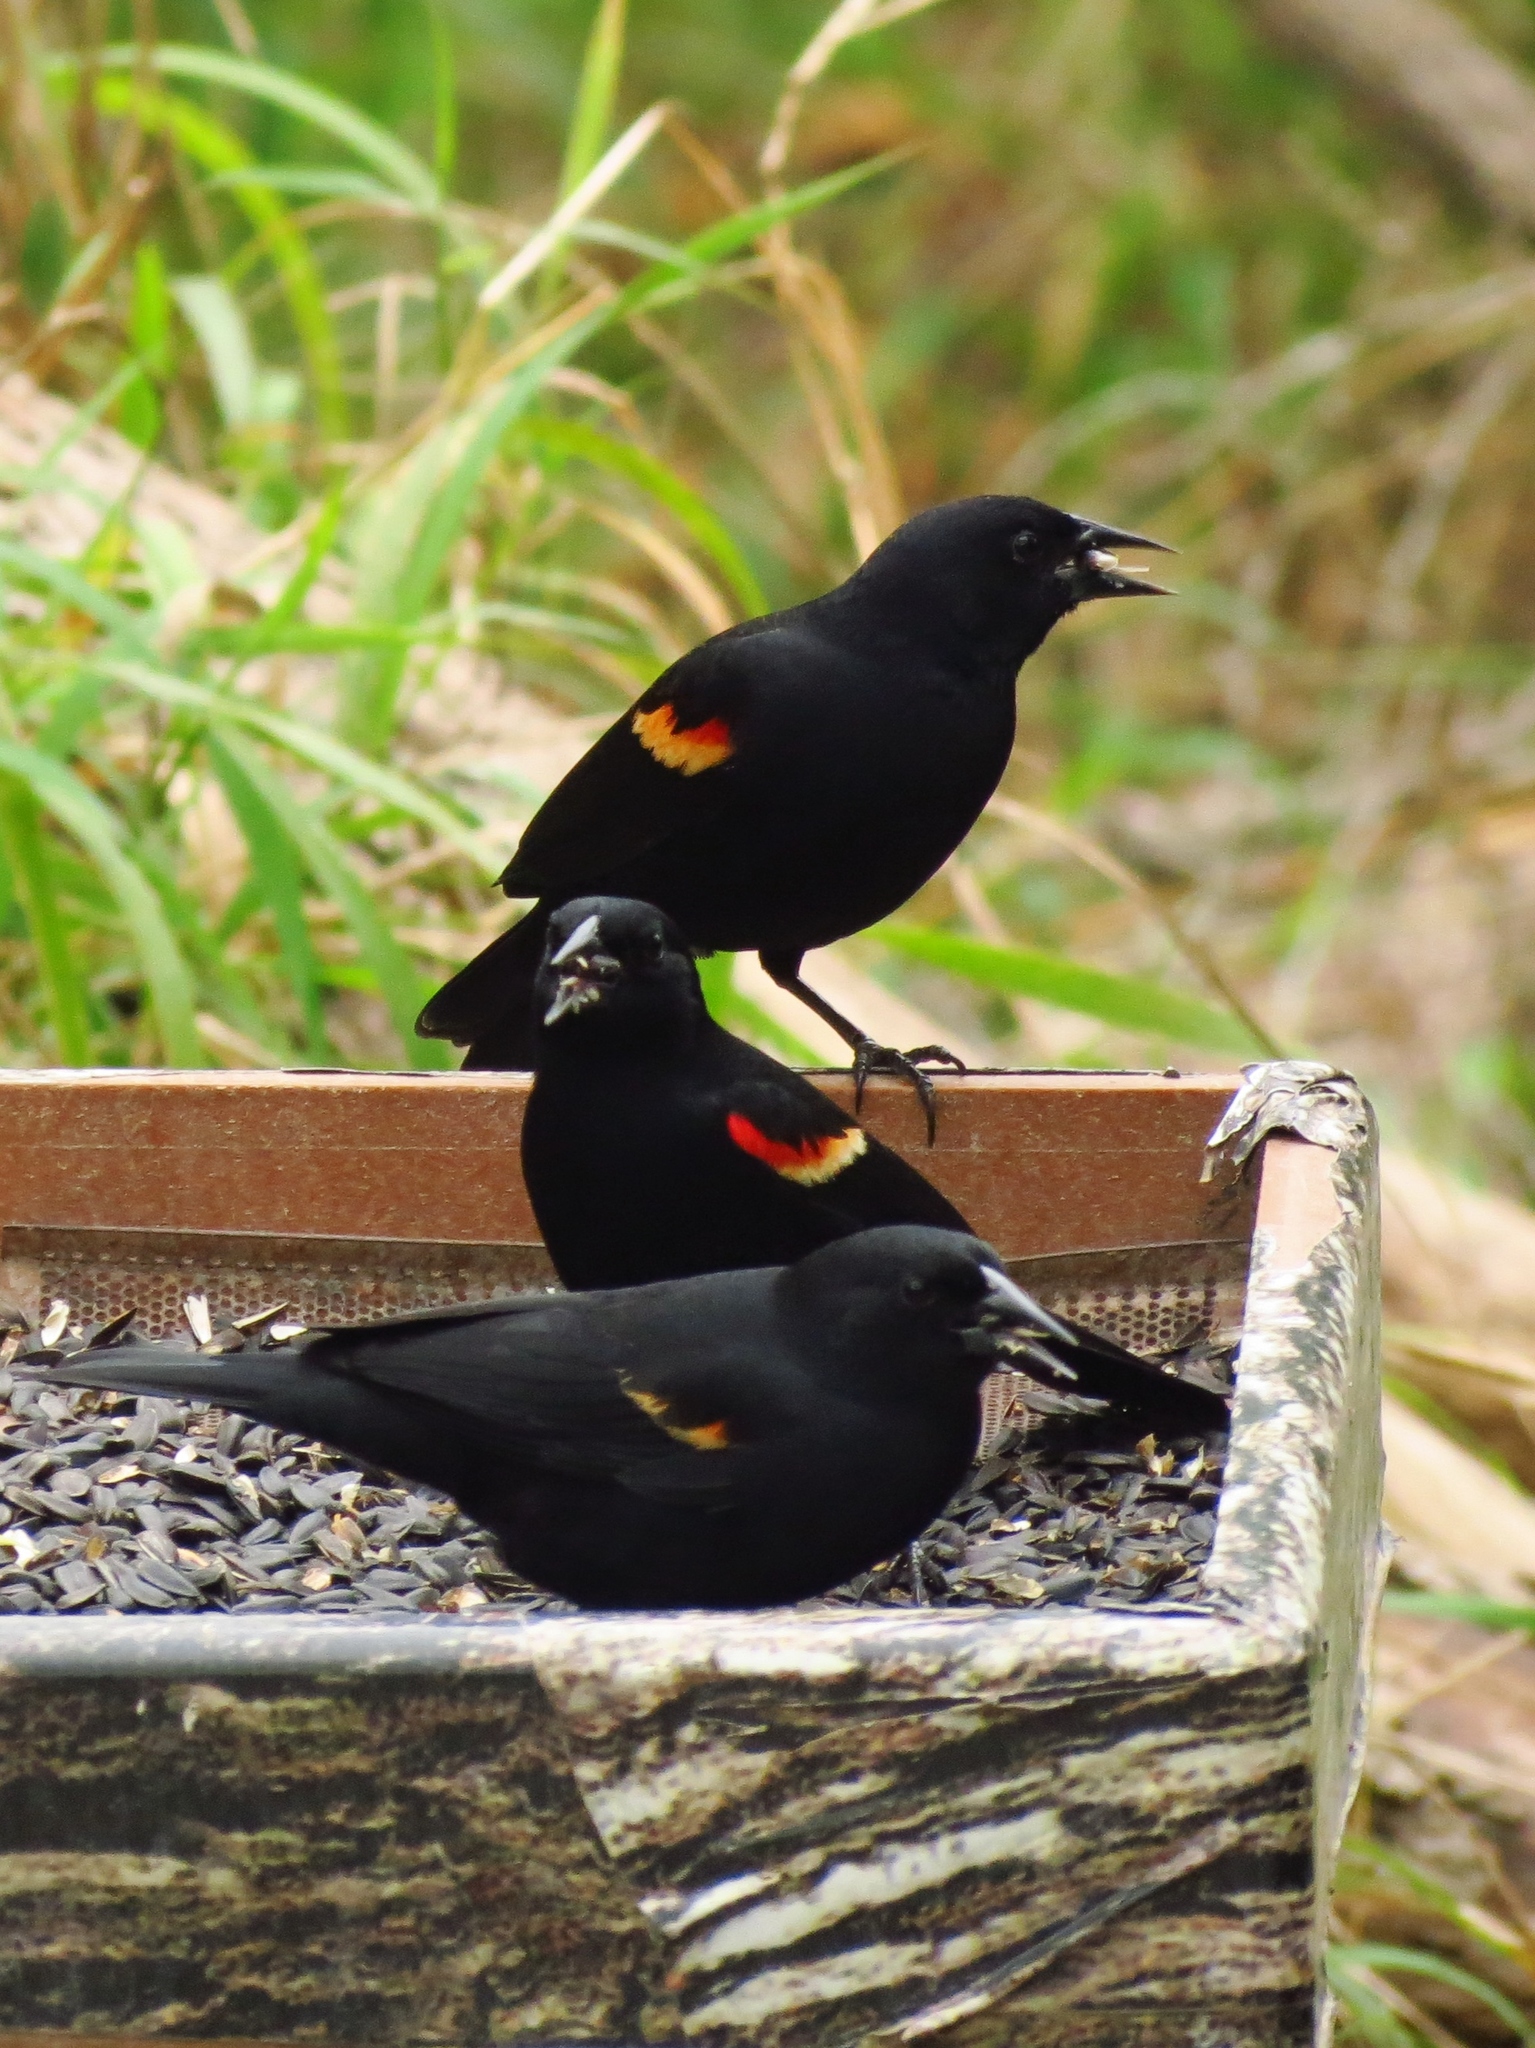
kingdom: Animalia
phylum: Chordata
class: Aves
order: Passeriformes
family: Icteridae
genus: Agelaius
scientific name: Agelaius phoeniceus
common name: Red-winged blackbird
